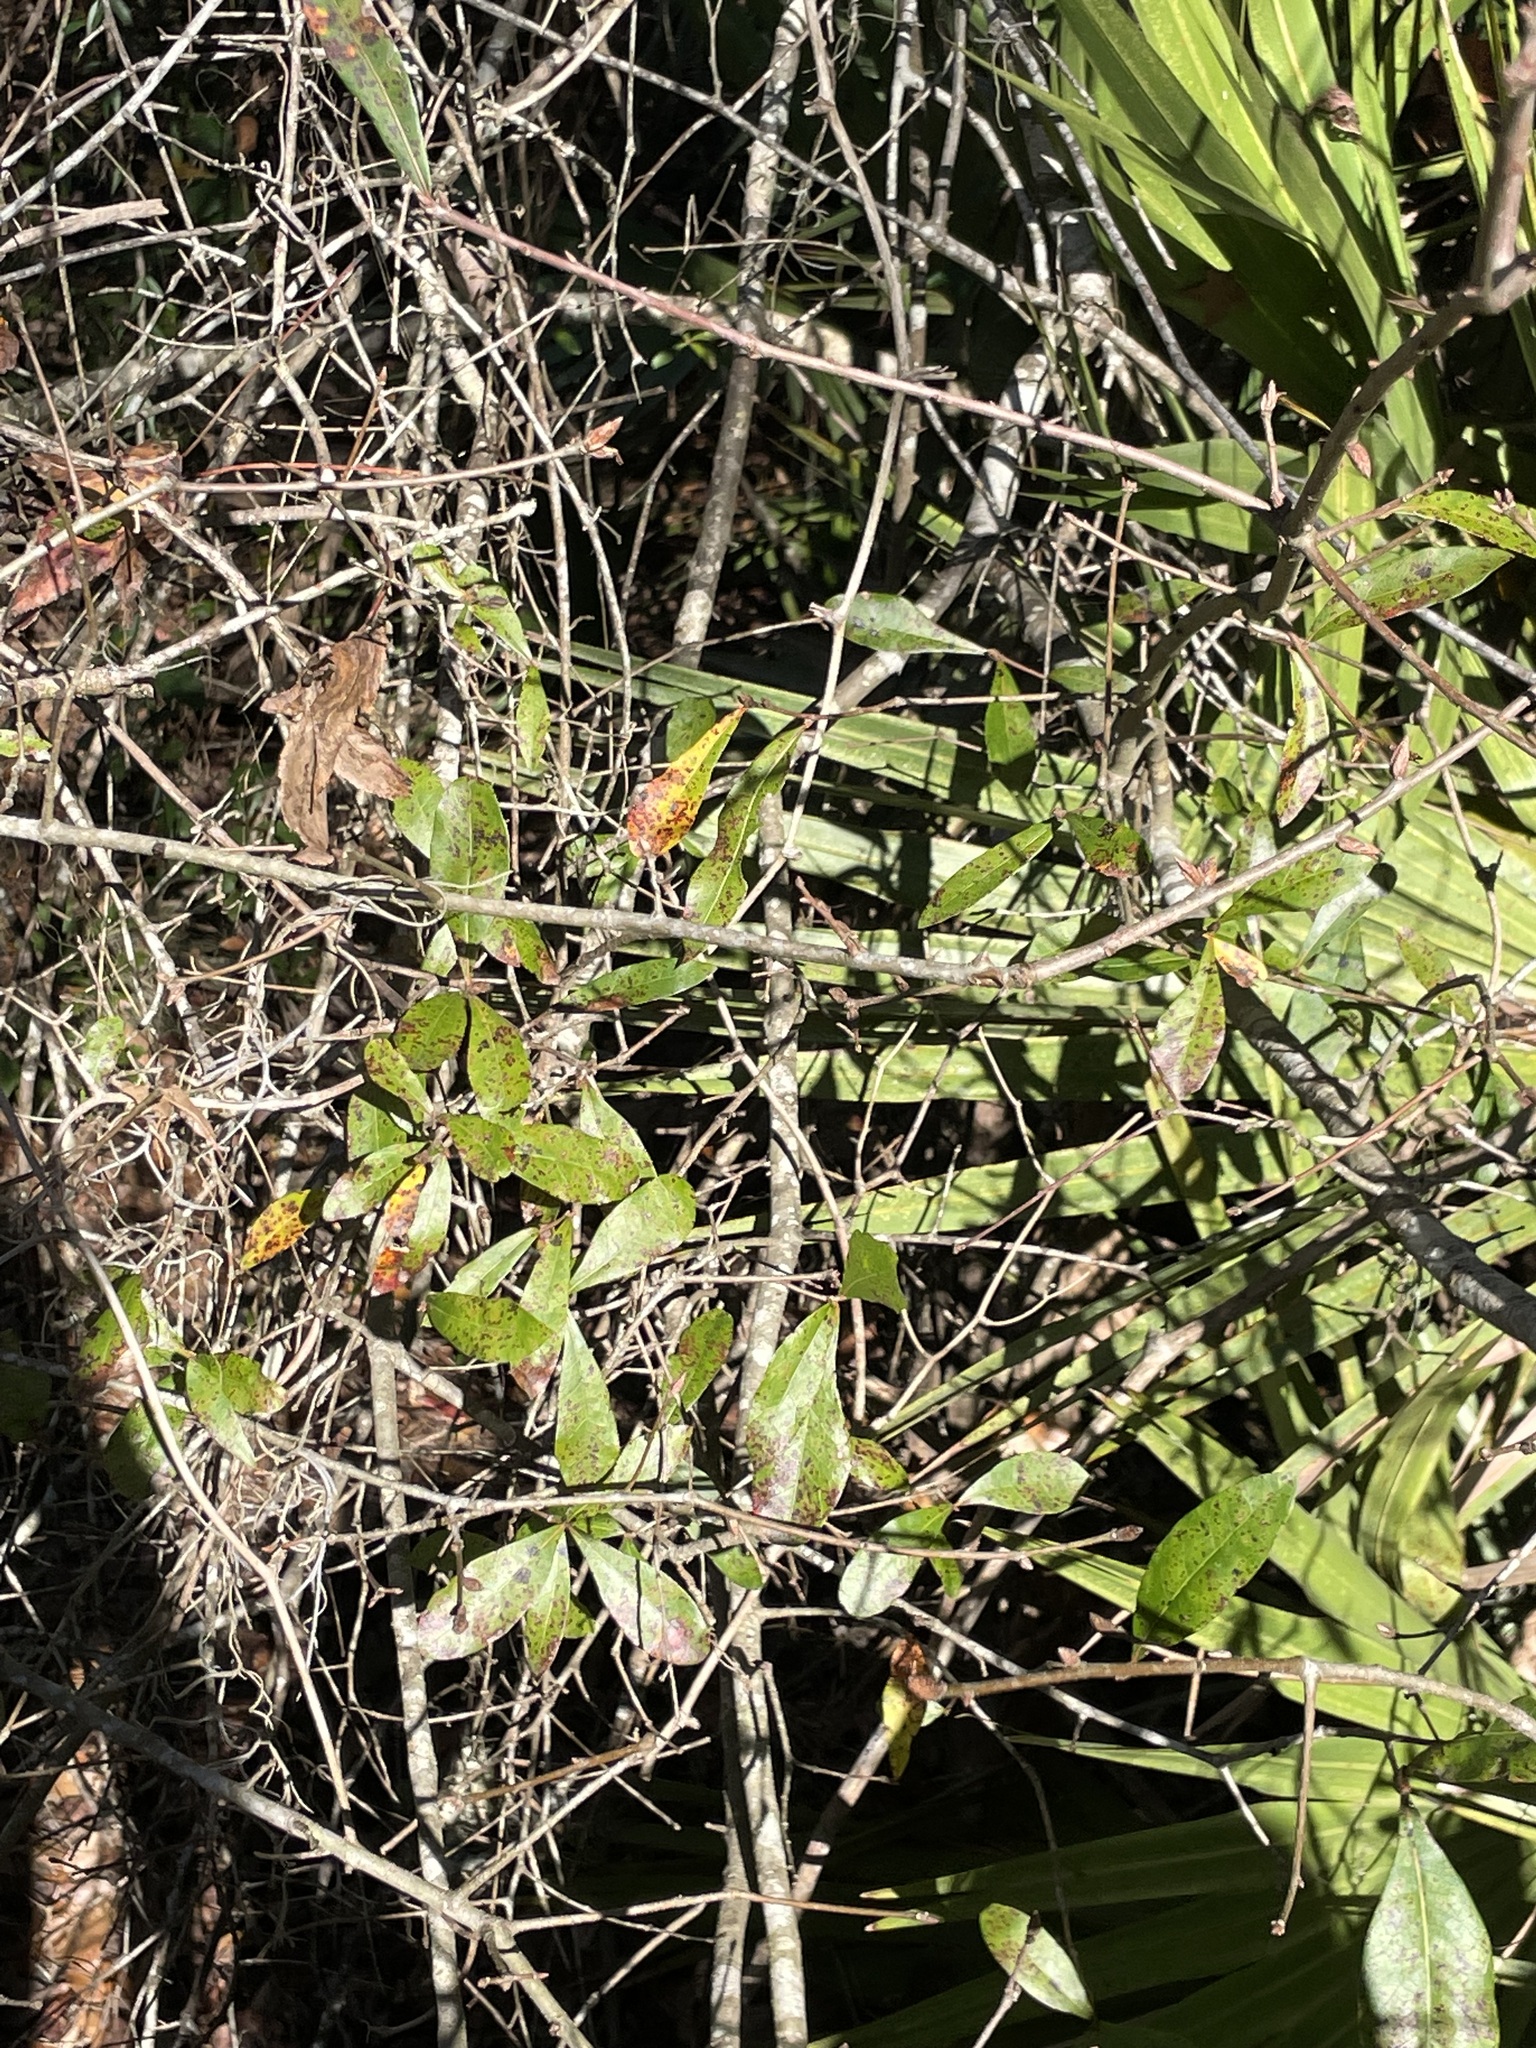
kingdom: Plantae
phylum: Tracheophyta
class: Magnoliopsida
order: Cornales
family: Nyssaceae
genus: Nyssa
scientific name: Nyssa biflora
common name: Swamp blackgum
